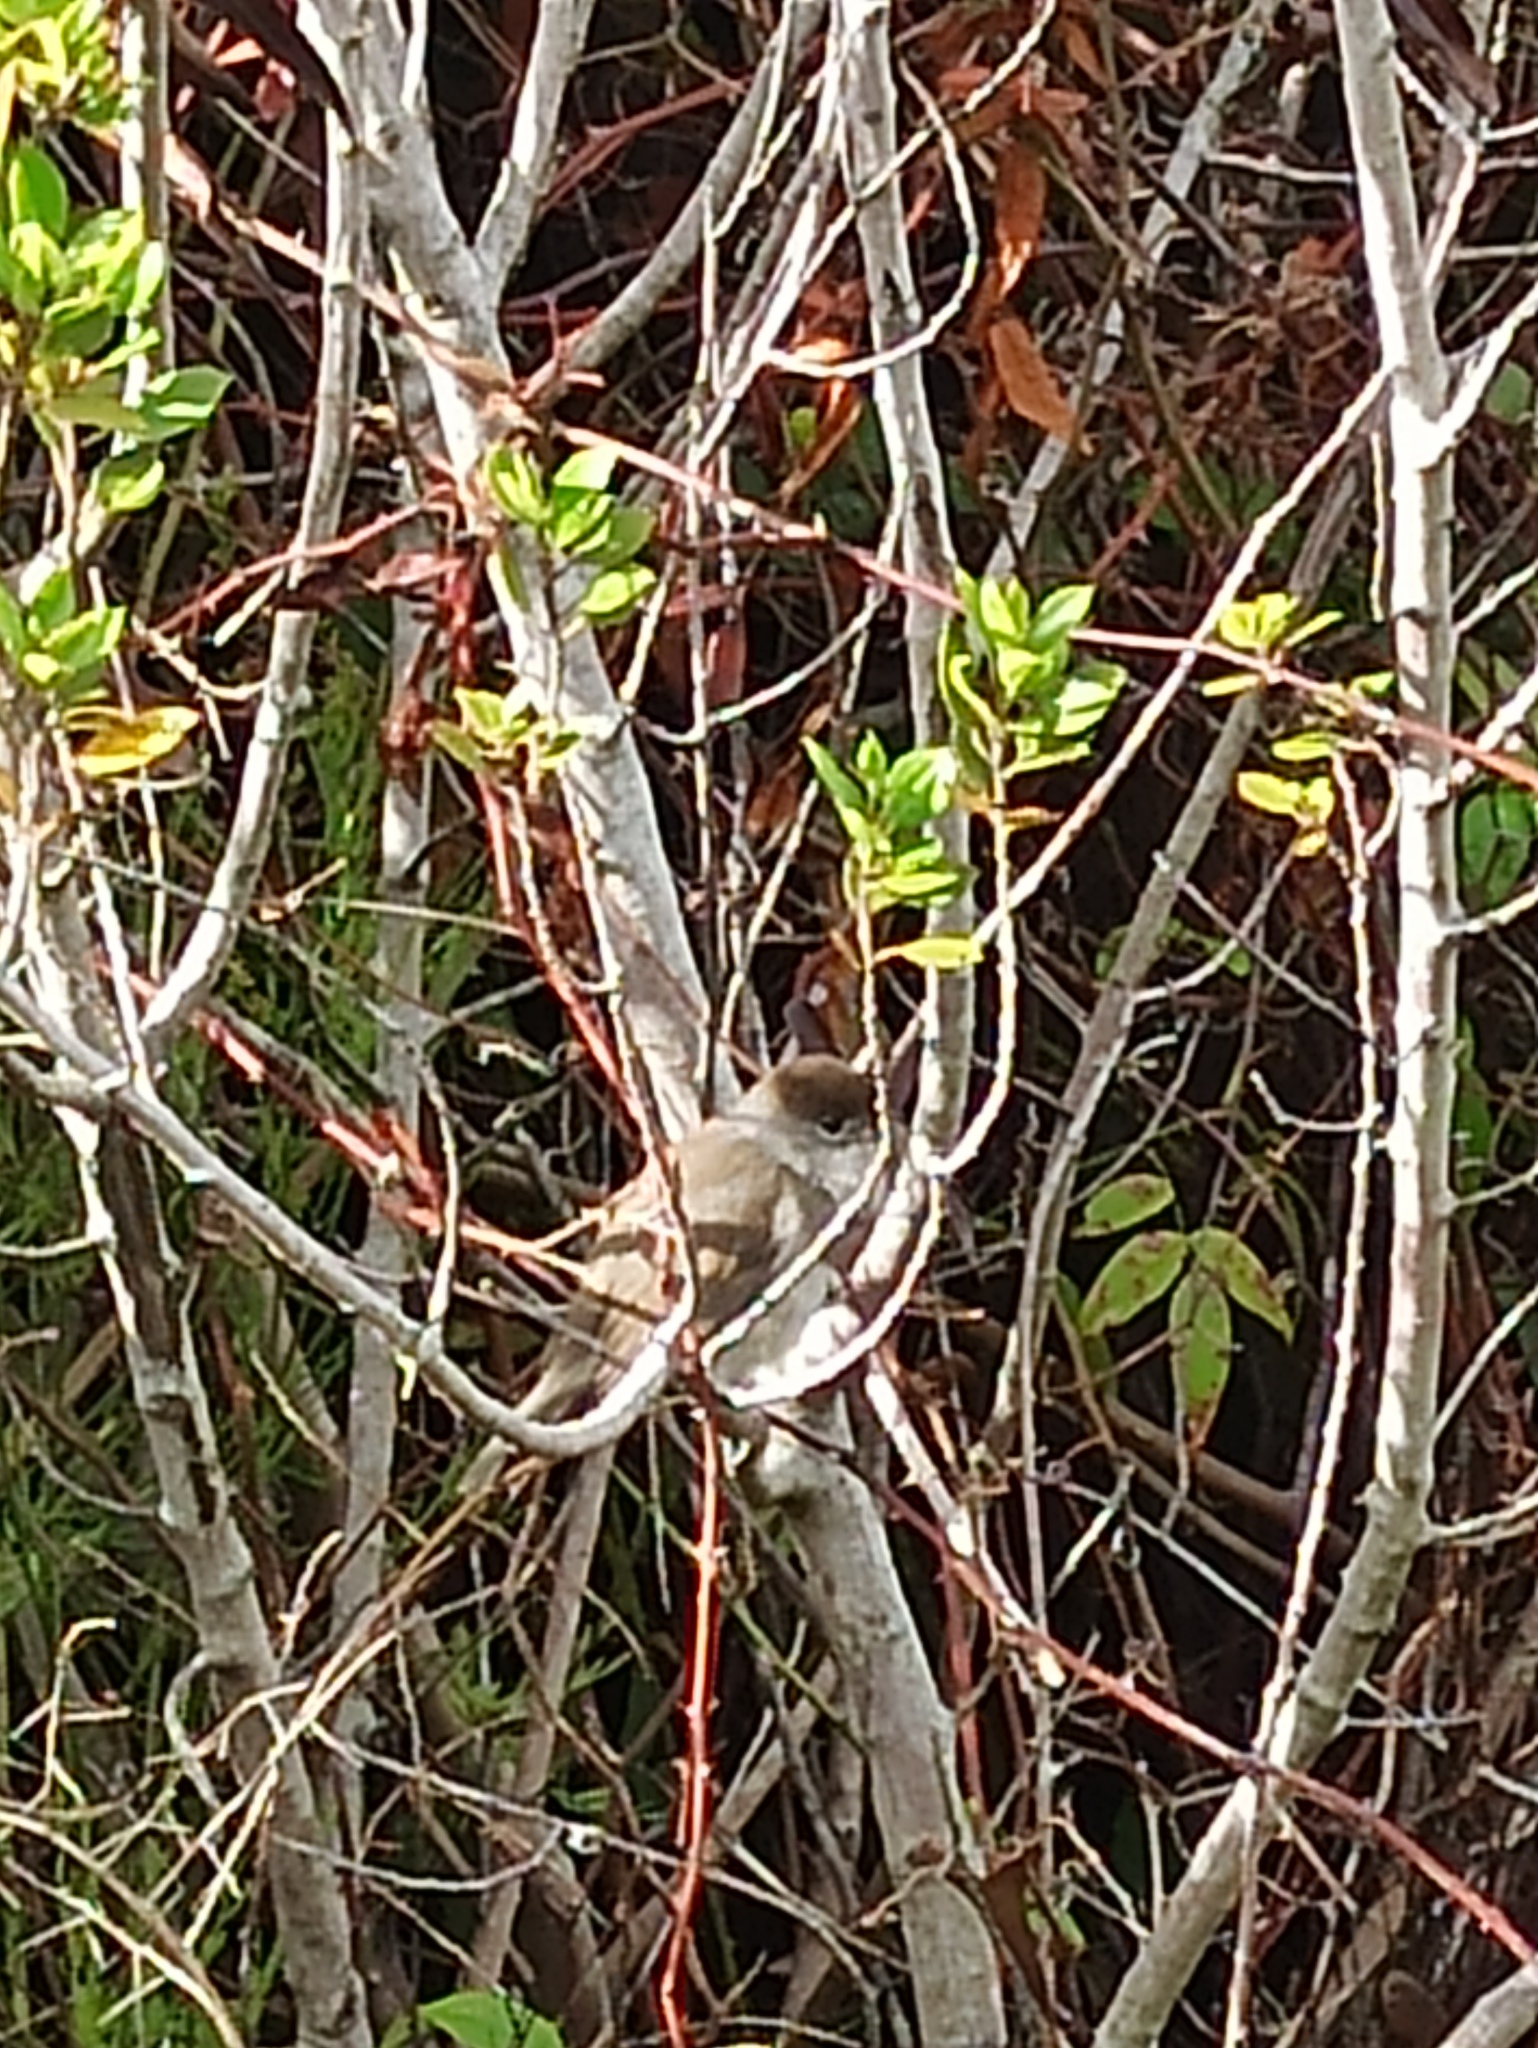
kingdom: Animalia
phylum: Chordata
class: Aves
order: Passeriformes
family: Sylviidae
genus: Sylvia
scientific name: Sylvia atricapilla
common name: Eurasian blackcap
